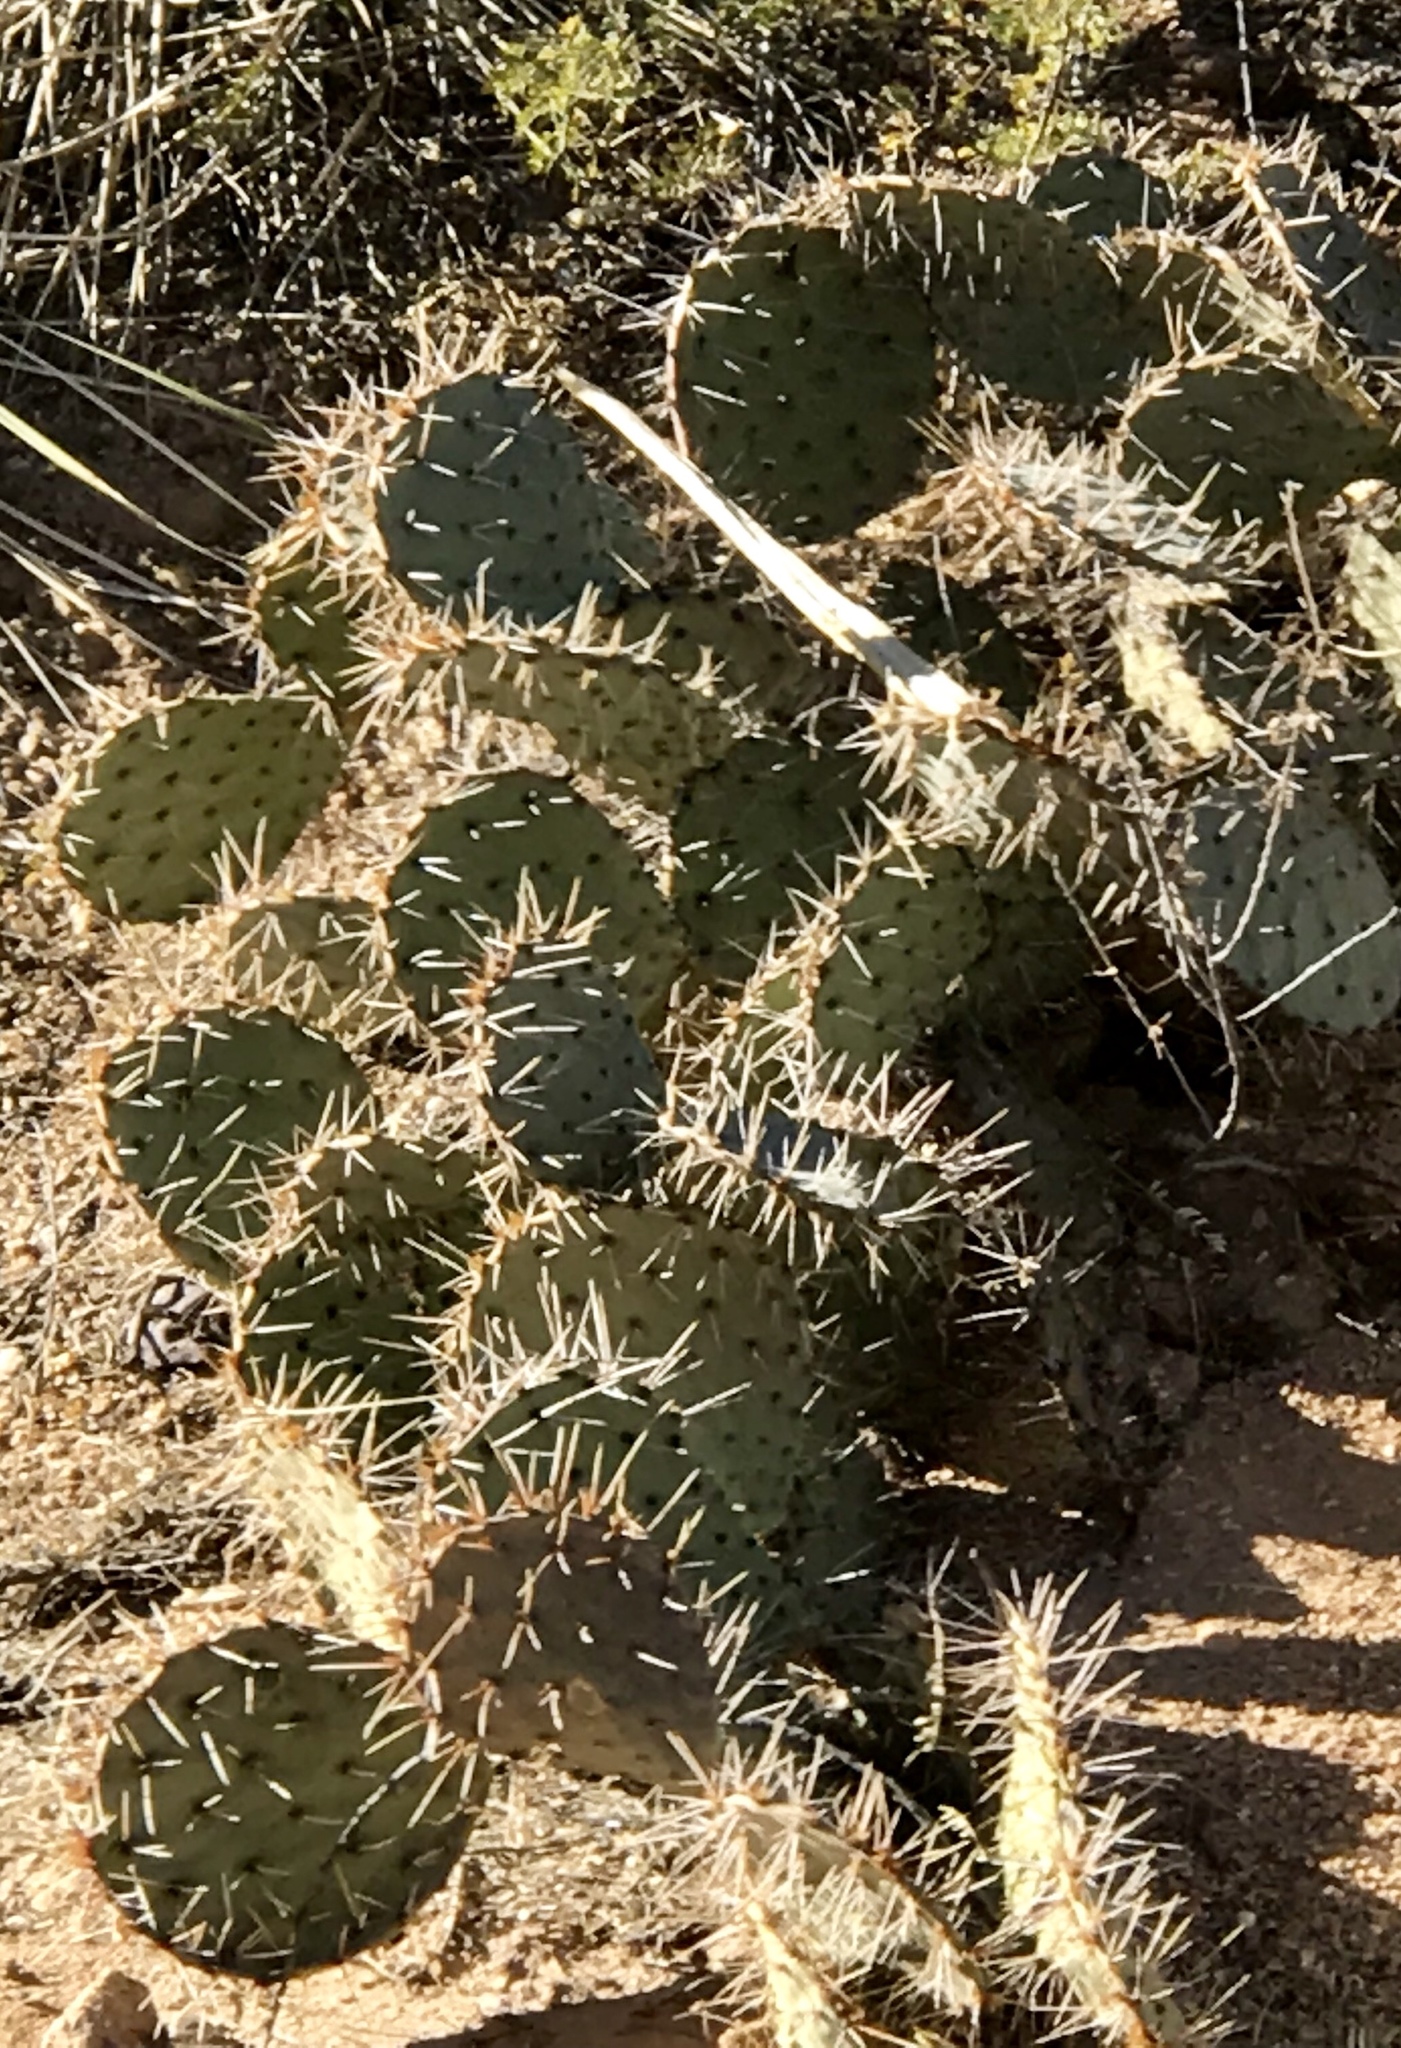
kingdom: Plantae
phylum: Tracheophyta
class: Magnoliopsida
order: Caryophyllales
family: Cactaceae
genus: Opuntia
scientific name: Opuntia phaeacantha
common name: New mexico prickly-pear
